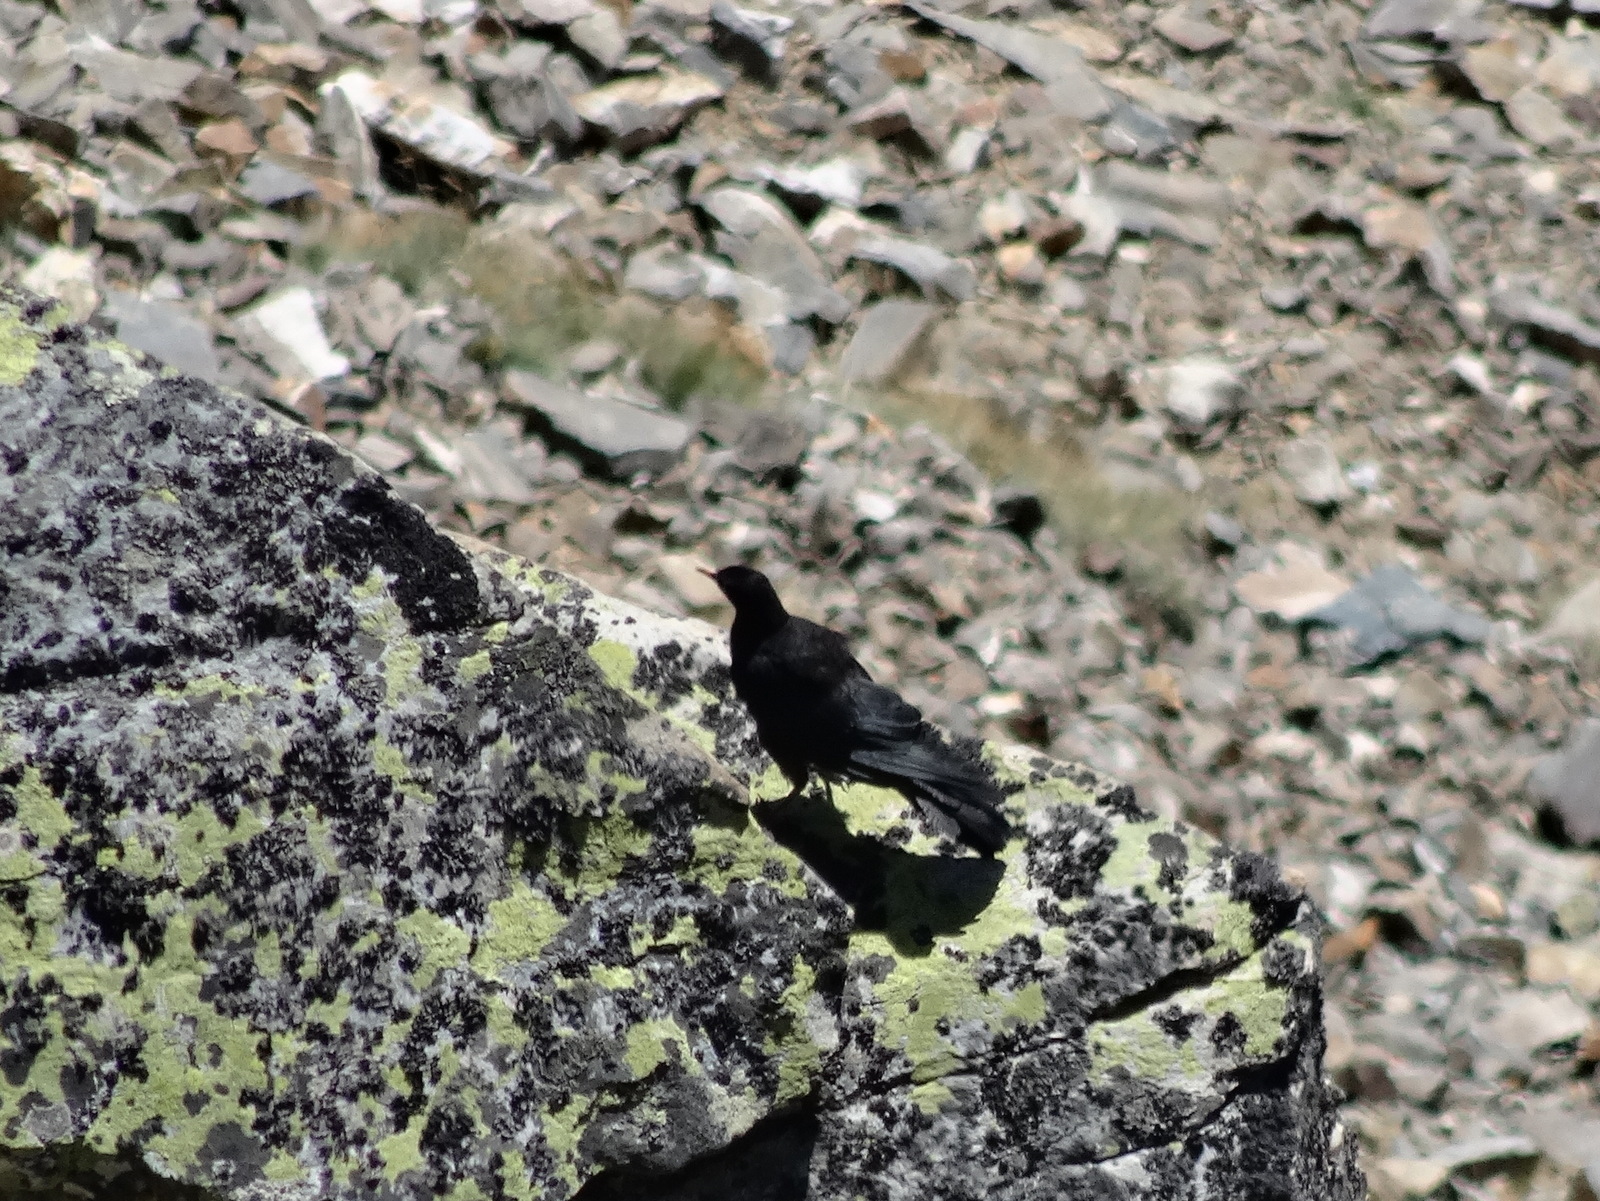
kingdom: Animalia
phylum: Chordata
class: Aves
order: Passeriformes
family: Corvidae
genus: Pyrrhocorax
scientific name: Pyrrhocorax graculus
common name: Alpine chough
